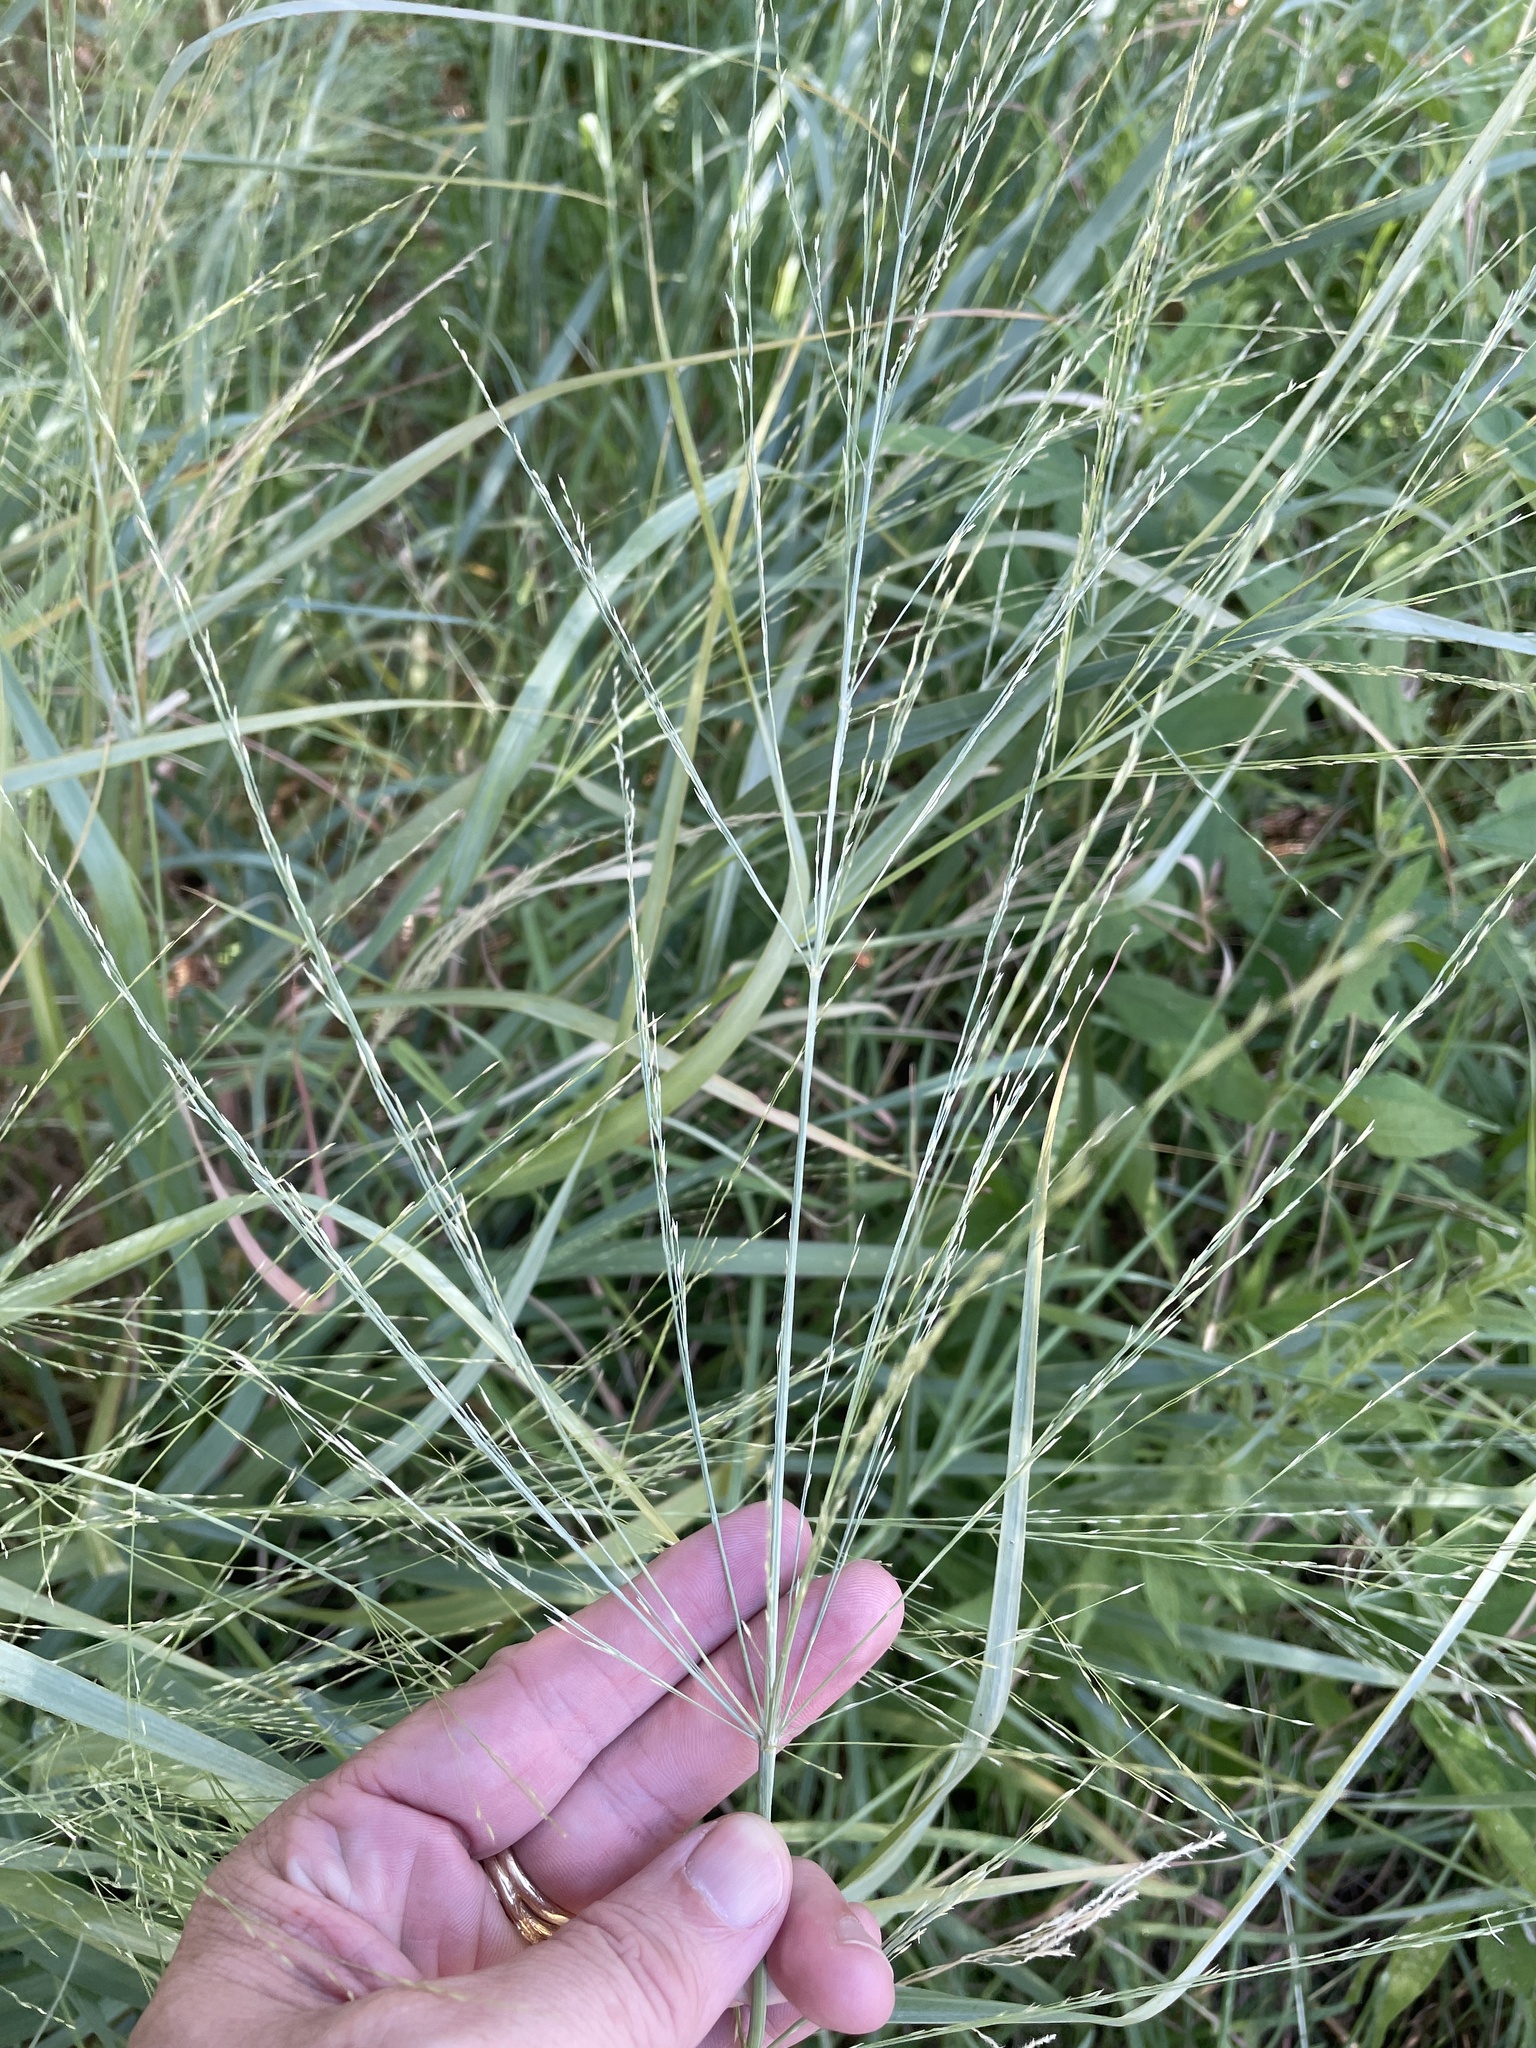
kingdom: Plantae
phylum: Tracheophyta
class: Liliopsida
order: Poales
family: Poaceae
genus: Panicum
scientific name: Panicum virgatum
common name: Switchgrass
